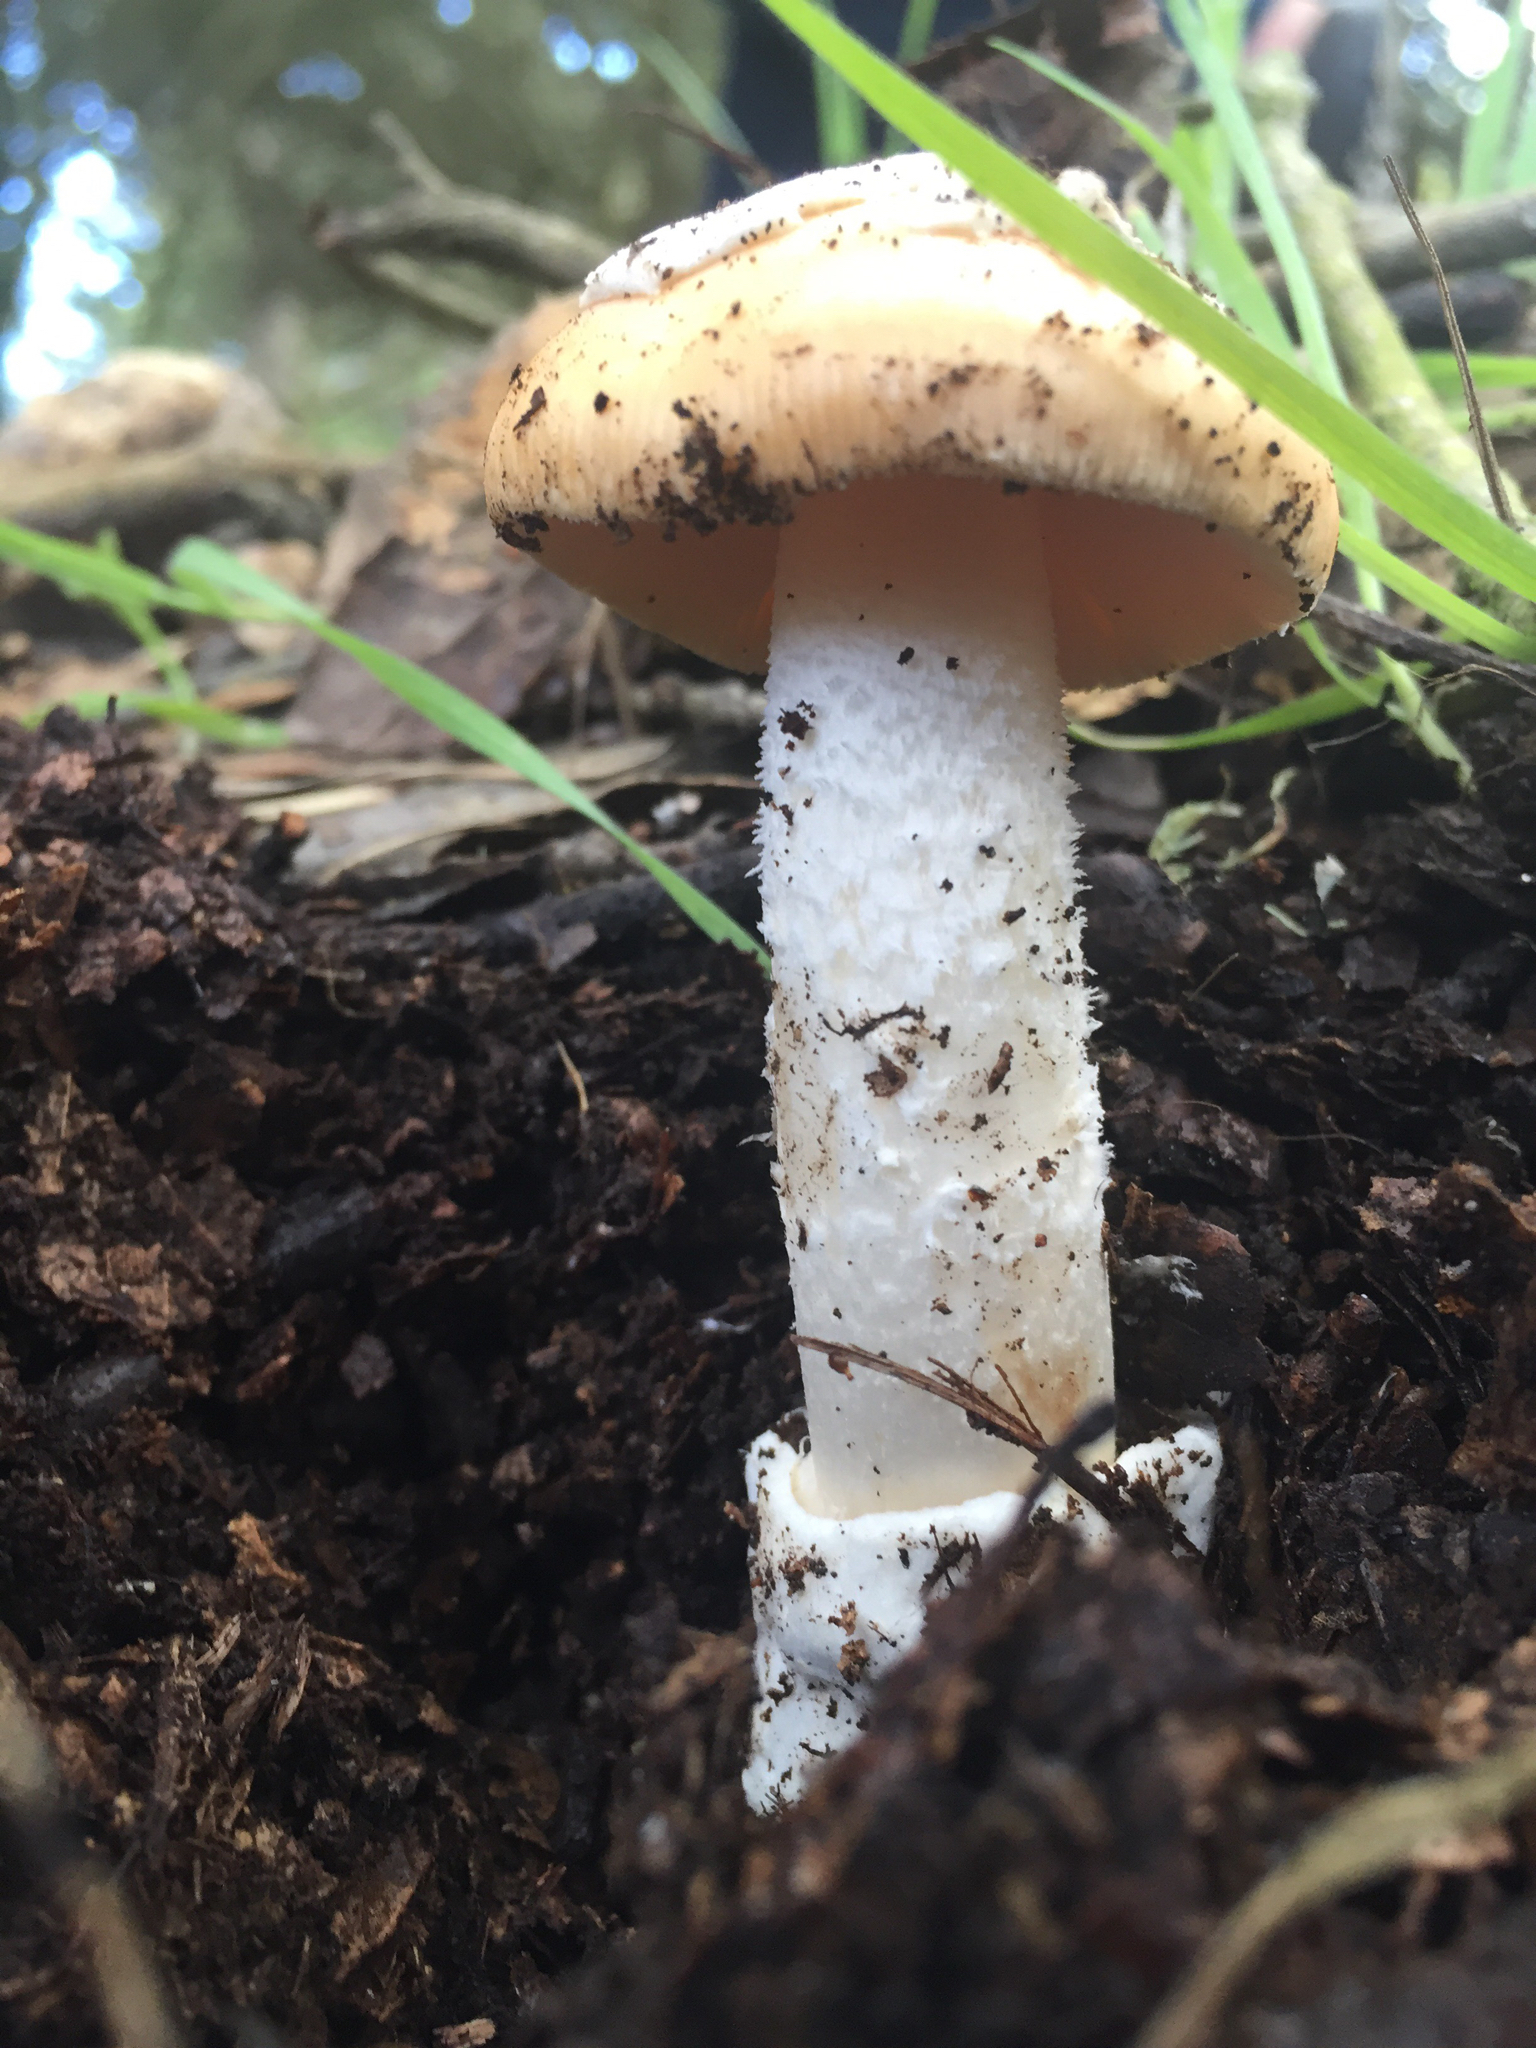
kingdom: Fungi
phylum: Basidiomycota
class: Agaricomycetes
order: Agaricales
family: Amanitaceae
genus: Amanita
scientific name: Amanita velosa
